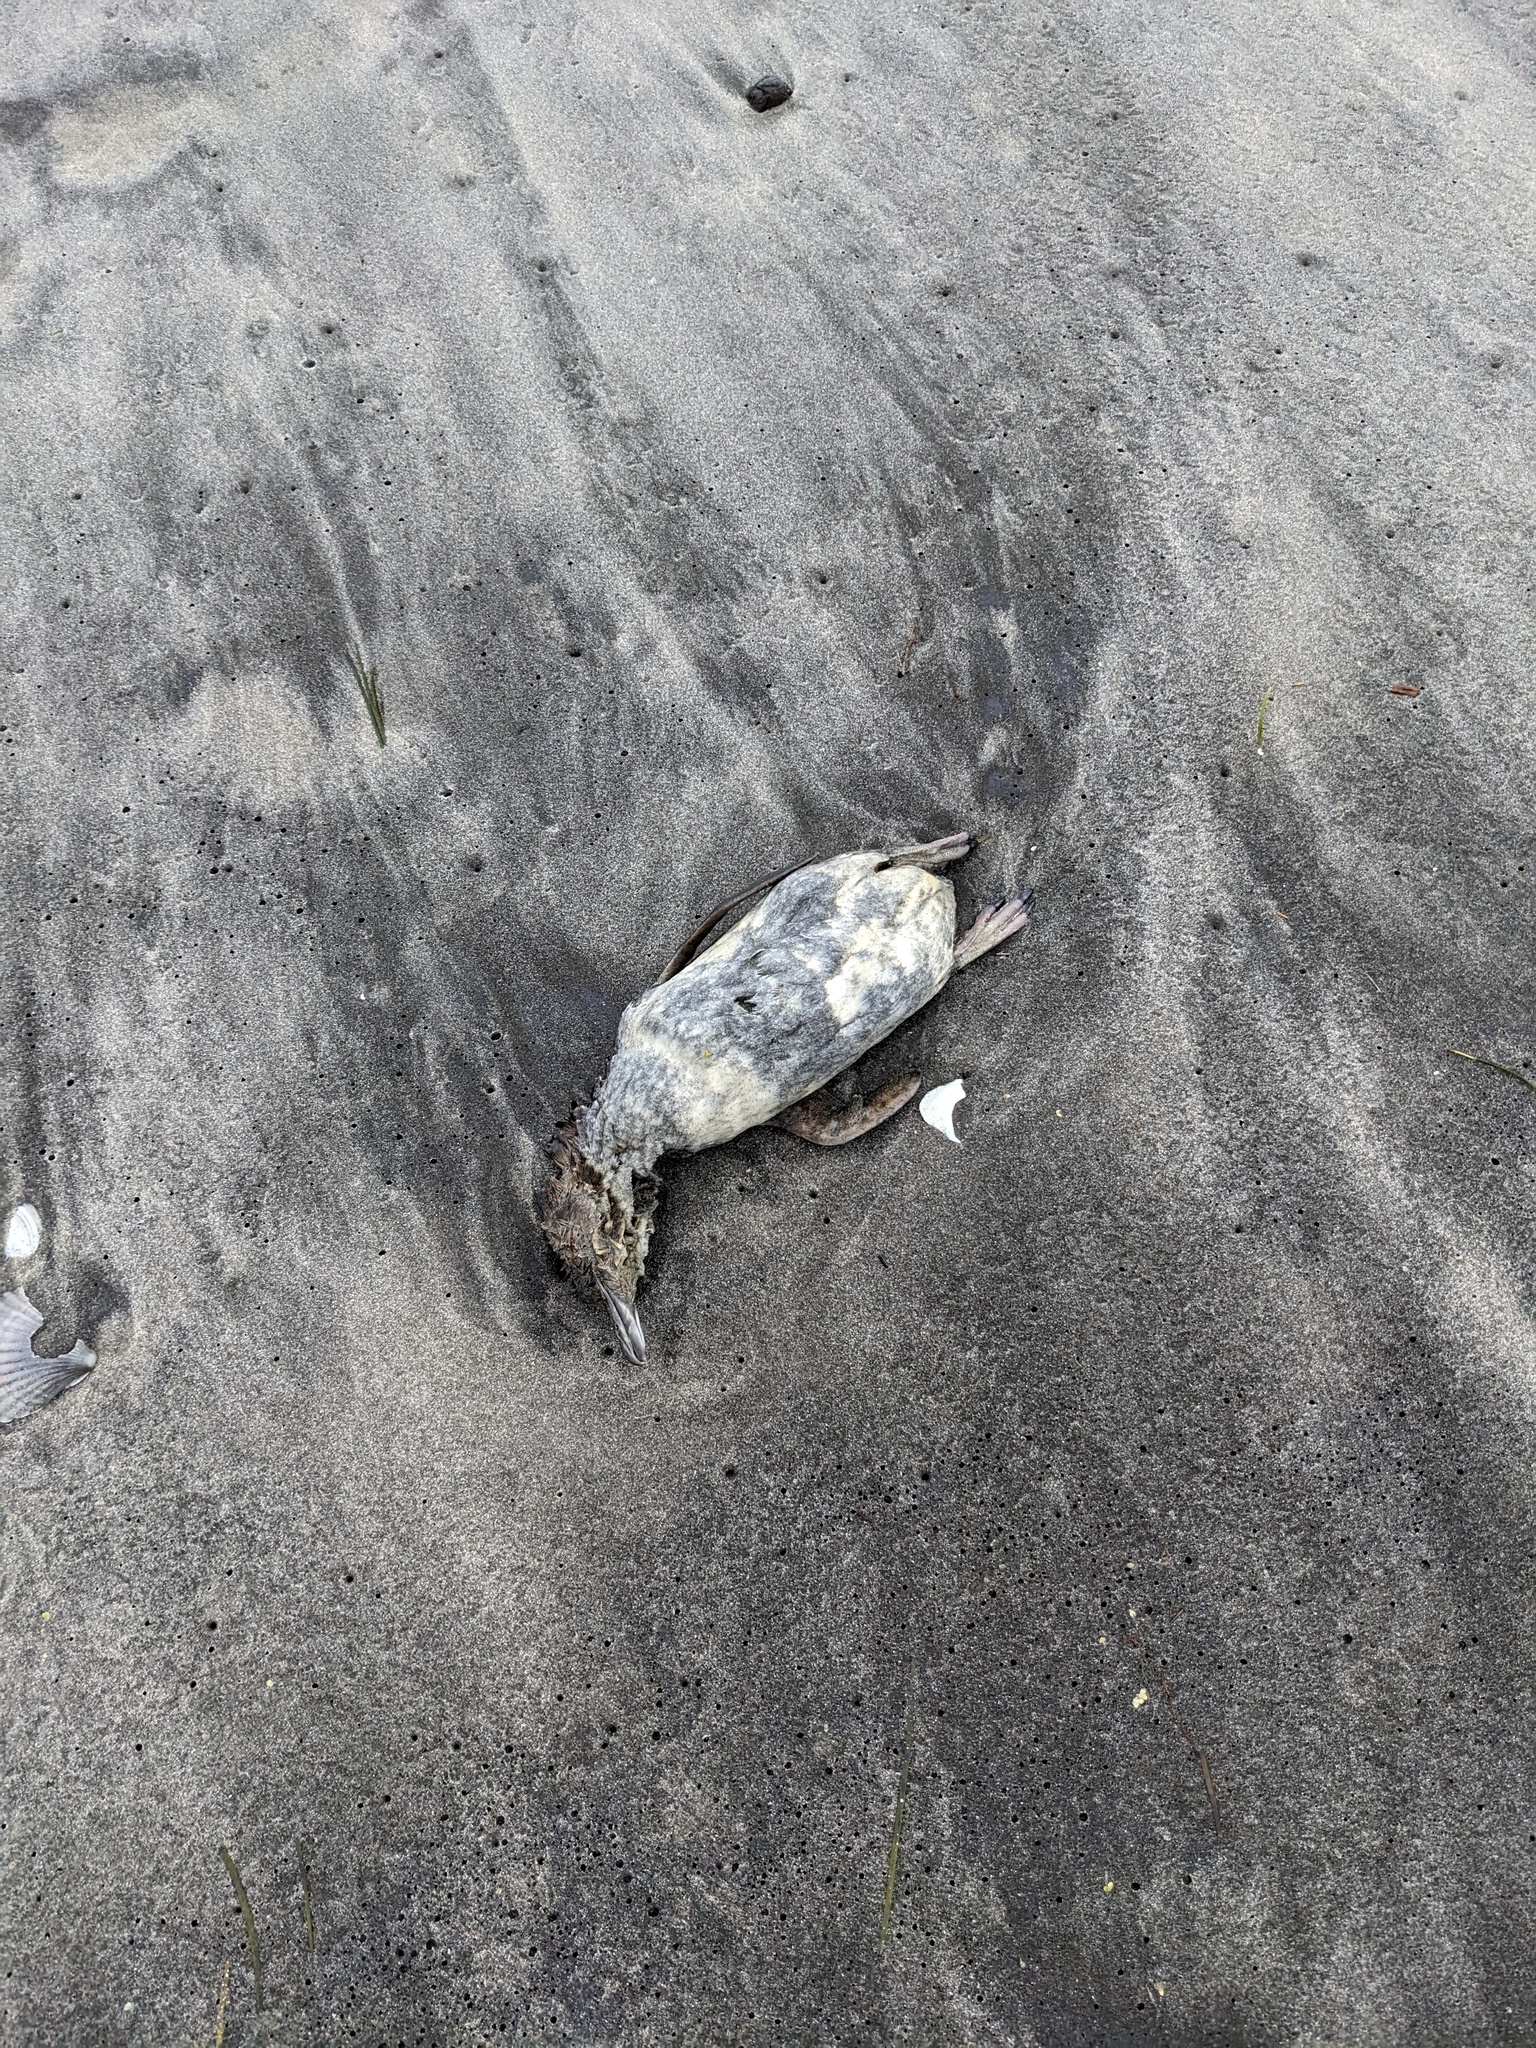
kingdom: Animalia
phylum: Chordata
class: Aves
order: Sphenisciformes
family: Spheniscidae
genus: Eudyptula
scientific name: Eudyptula minor
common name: Little penguin
